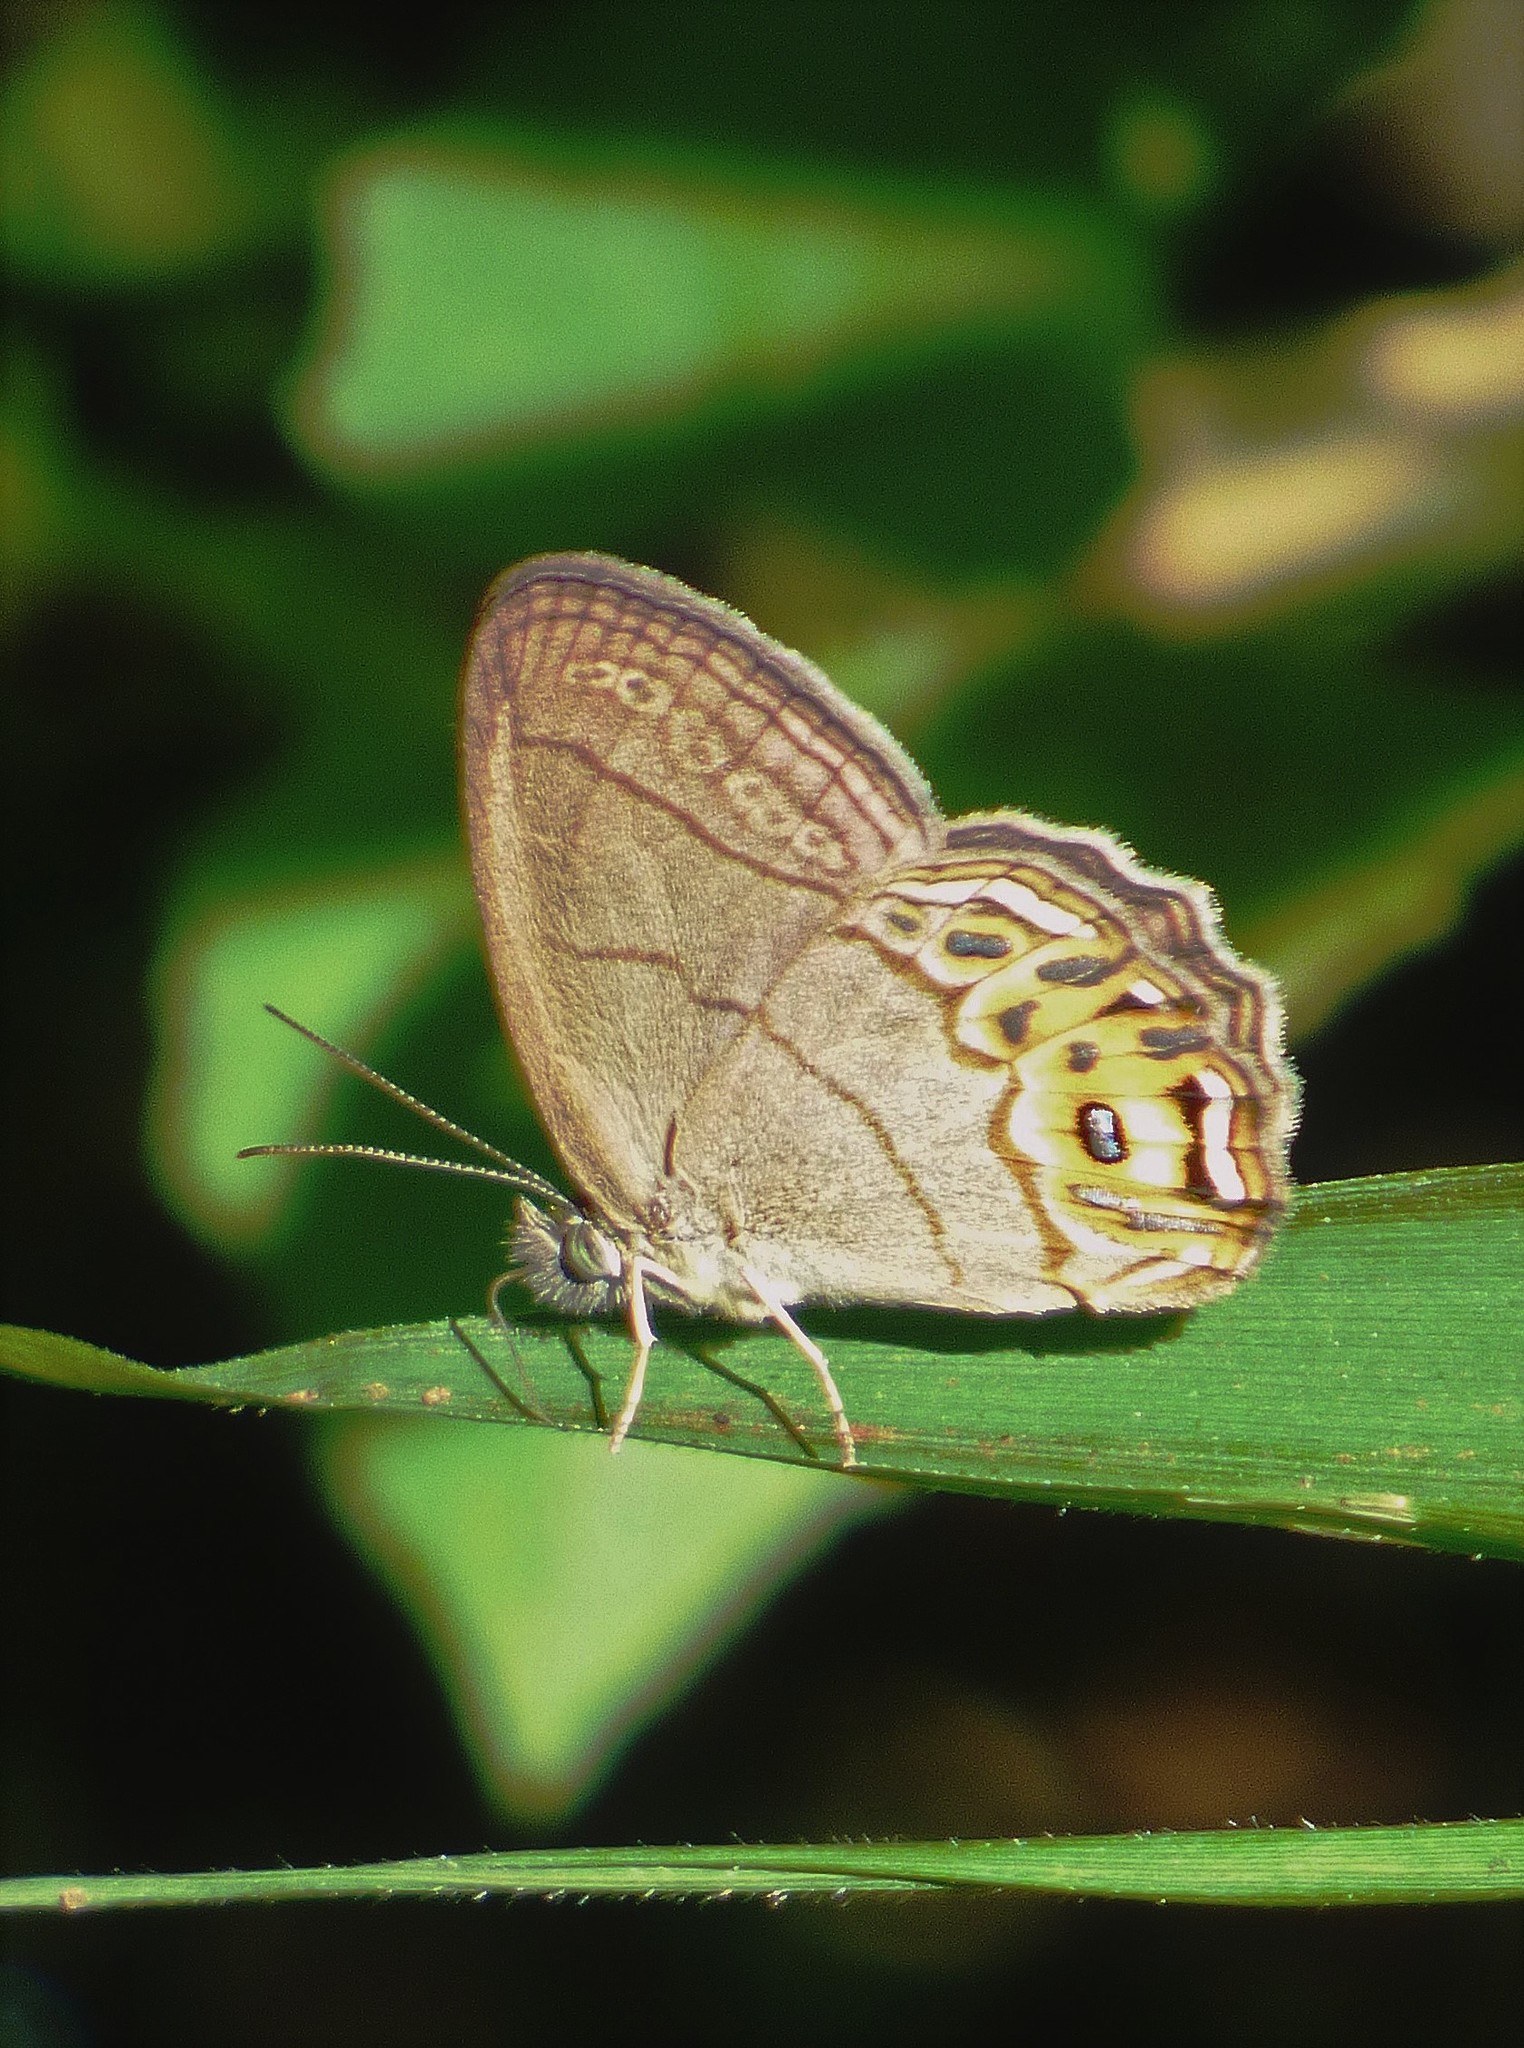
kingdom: Animalia
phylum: Arthropoda
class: Insecta
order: Lepidoptera
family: Nymphalidae
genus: Splendeuptychia
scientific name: Splendeuptychia libitina
